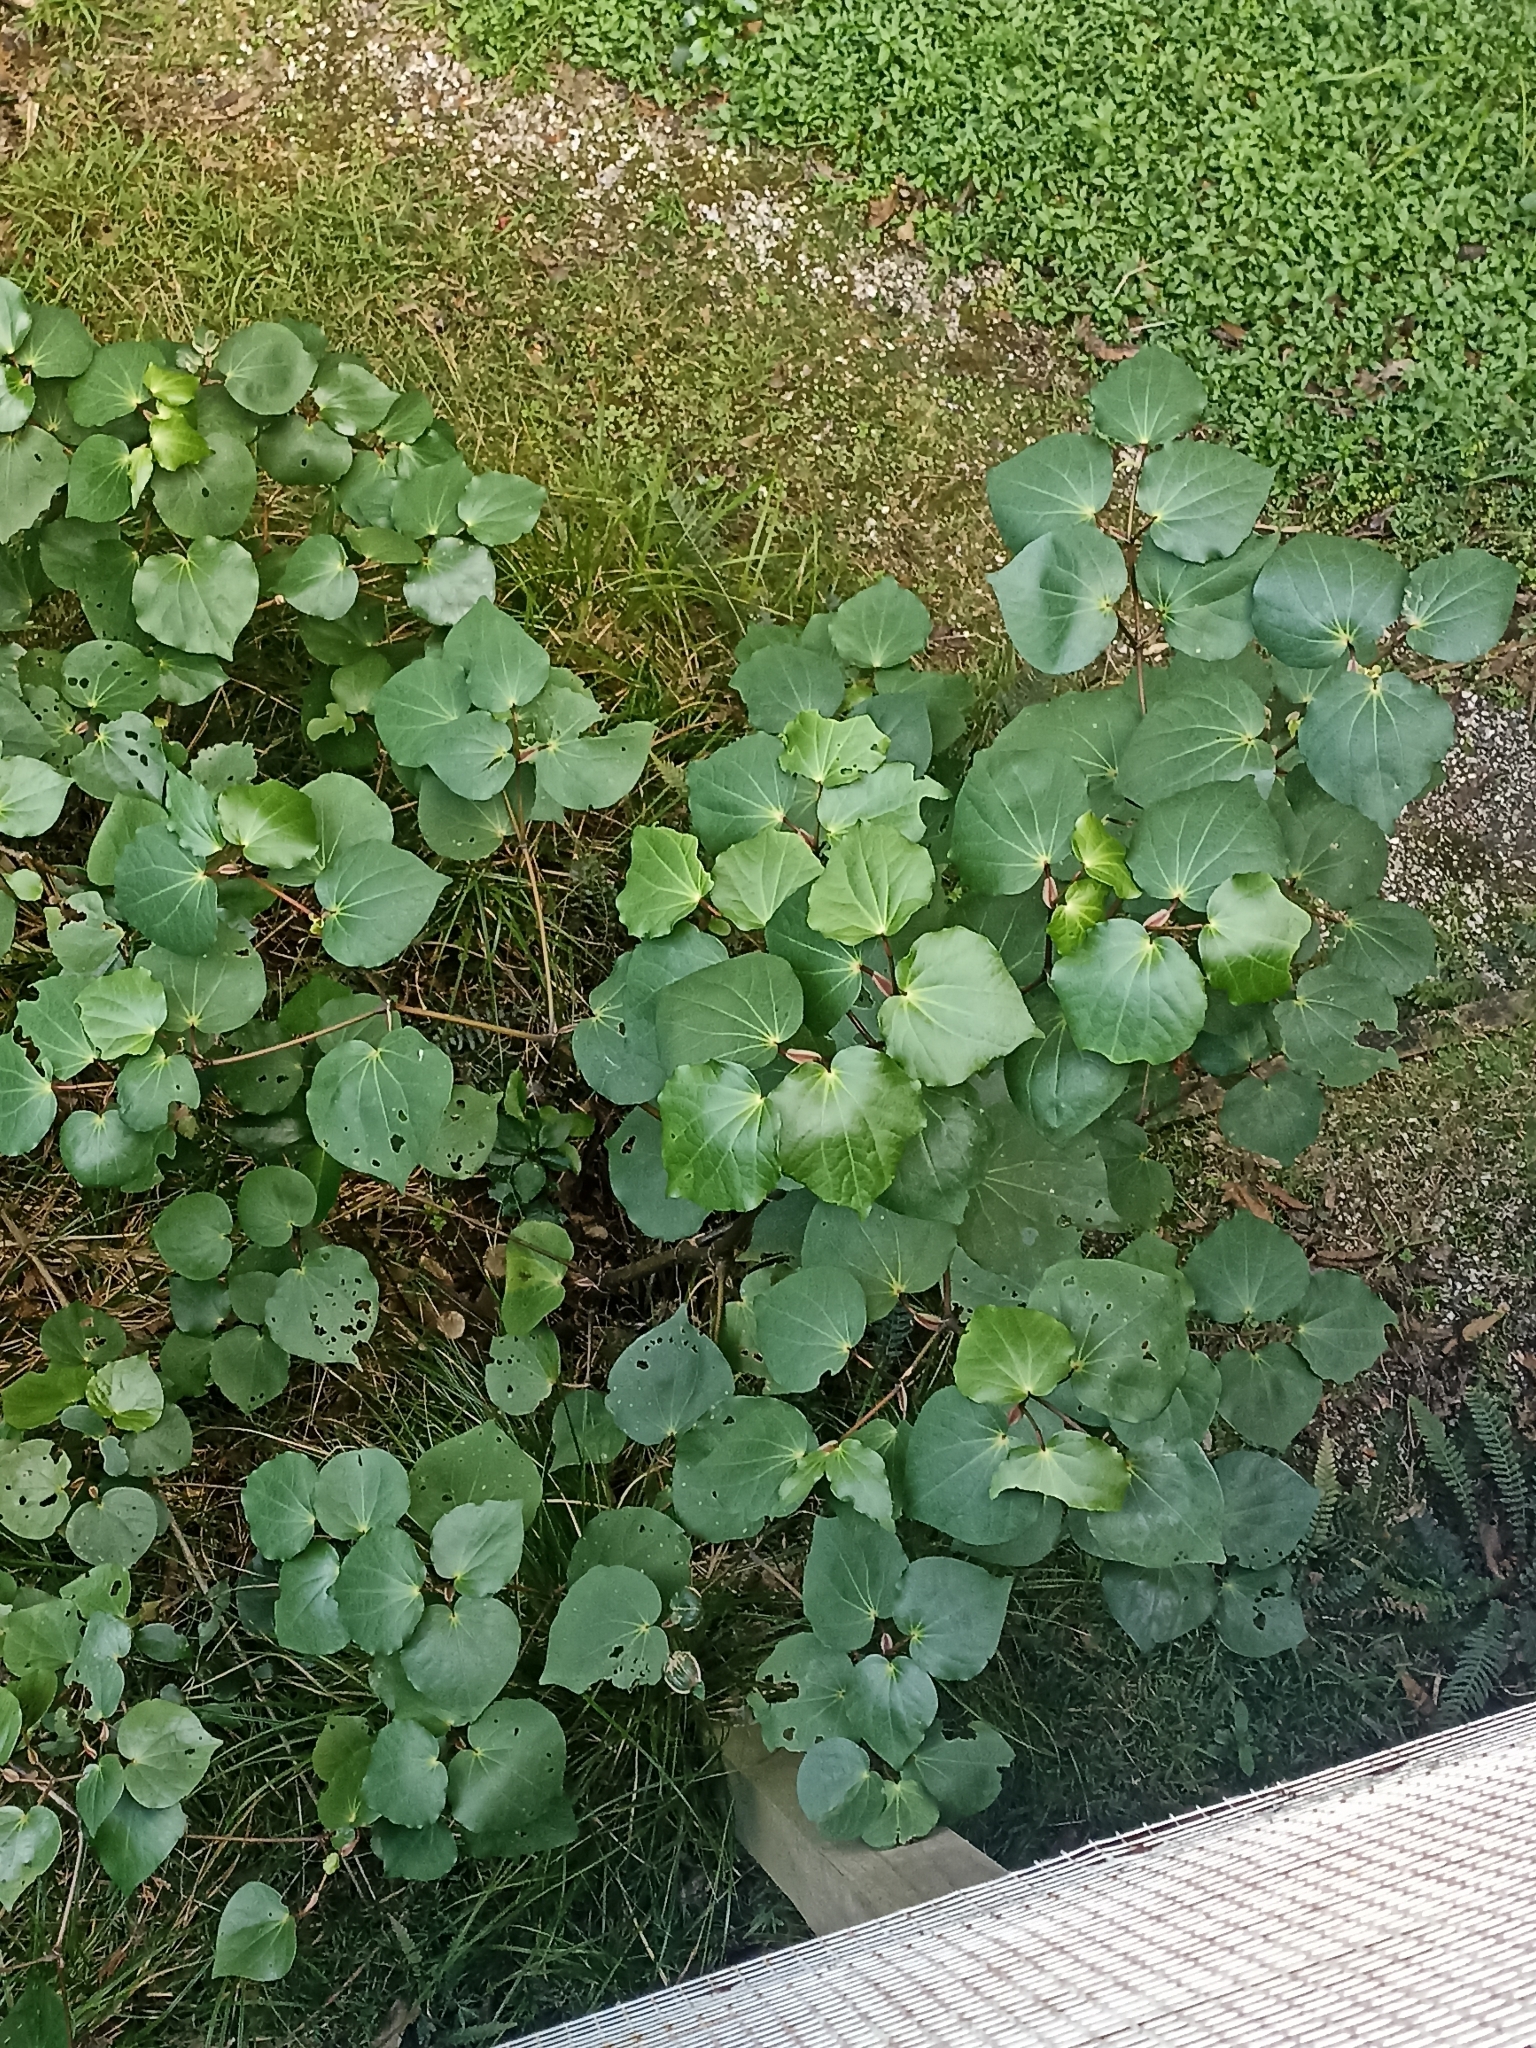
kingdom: Plantae
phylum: Tracheophyta
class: Magnoliopsida
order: Piperales
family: Piperaceae
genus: Macropiper
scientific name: Macropiper excelsum
